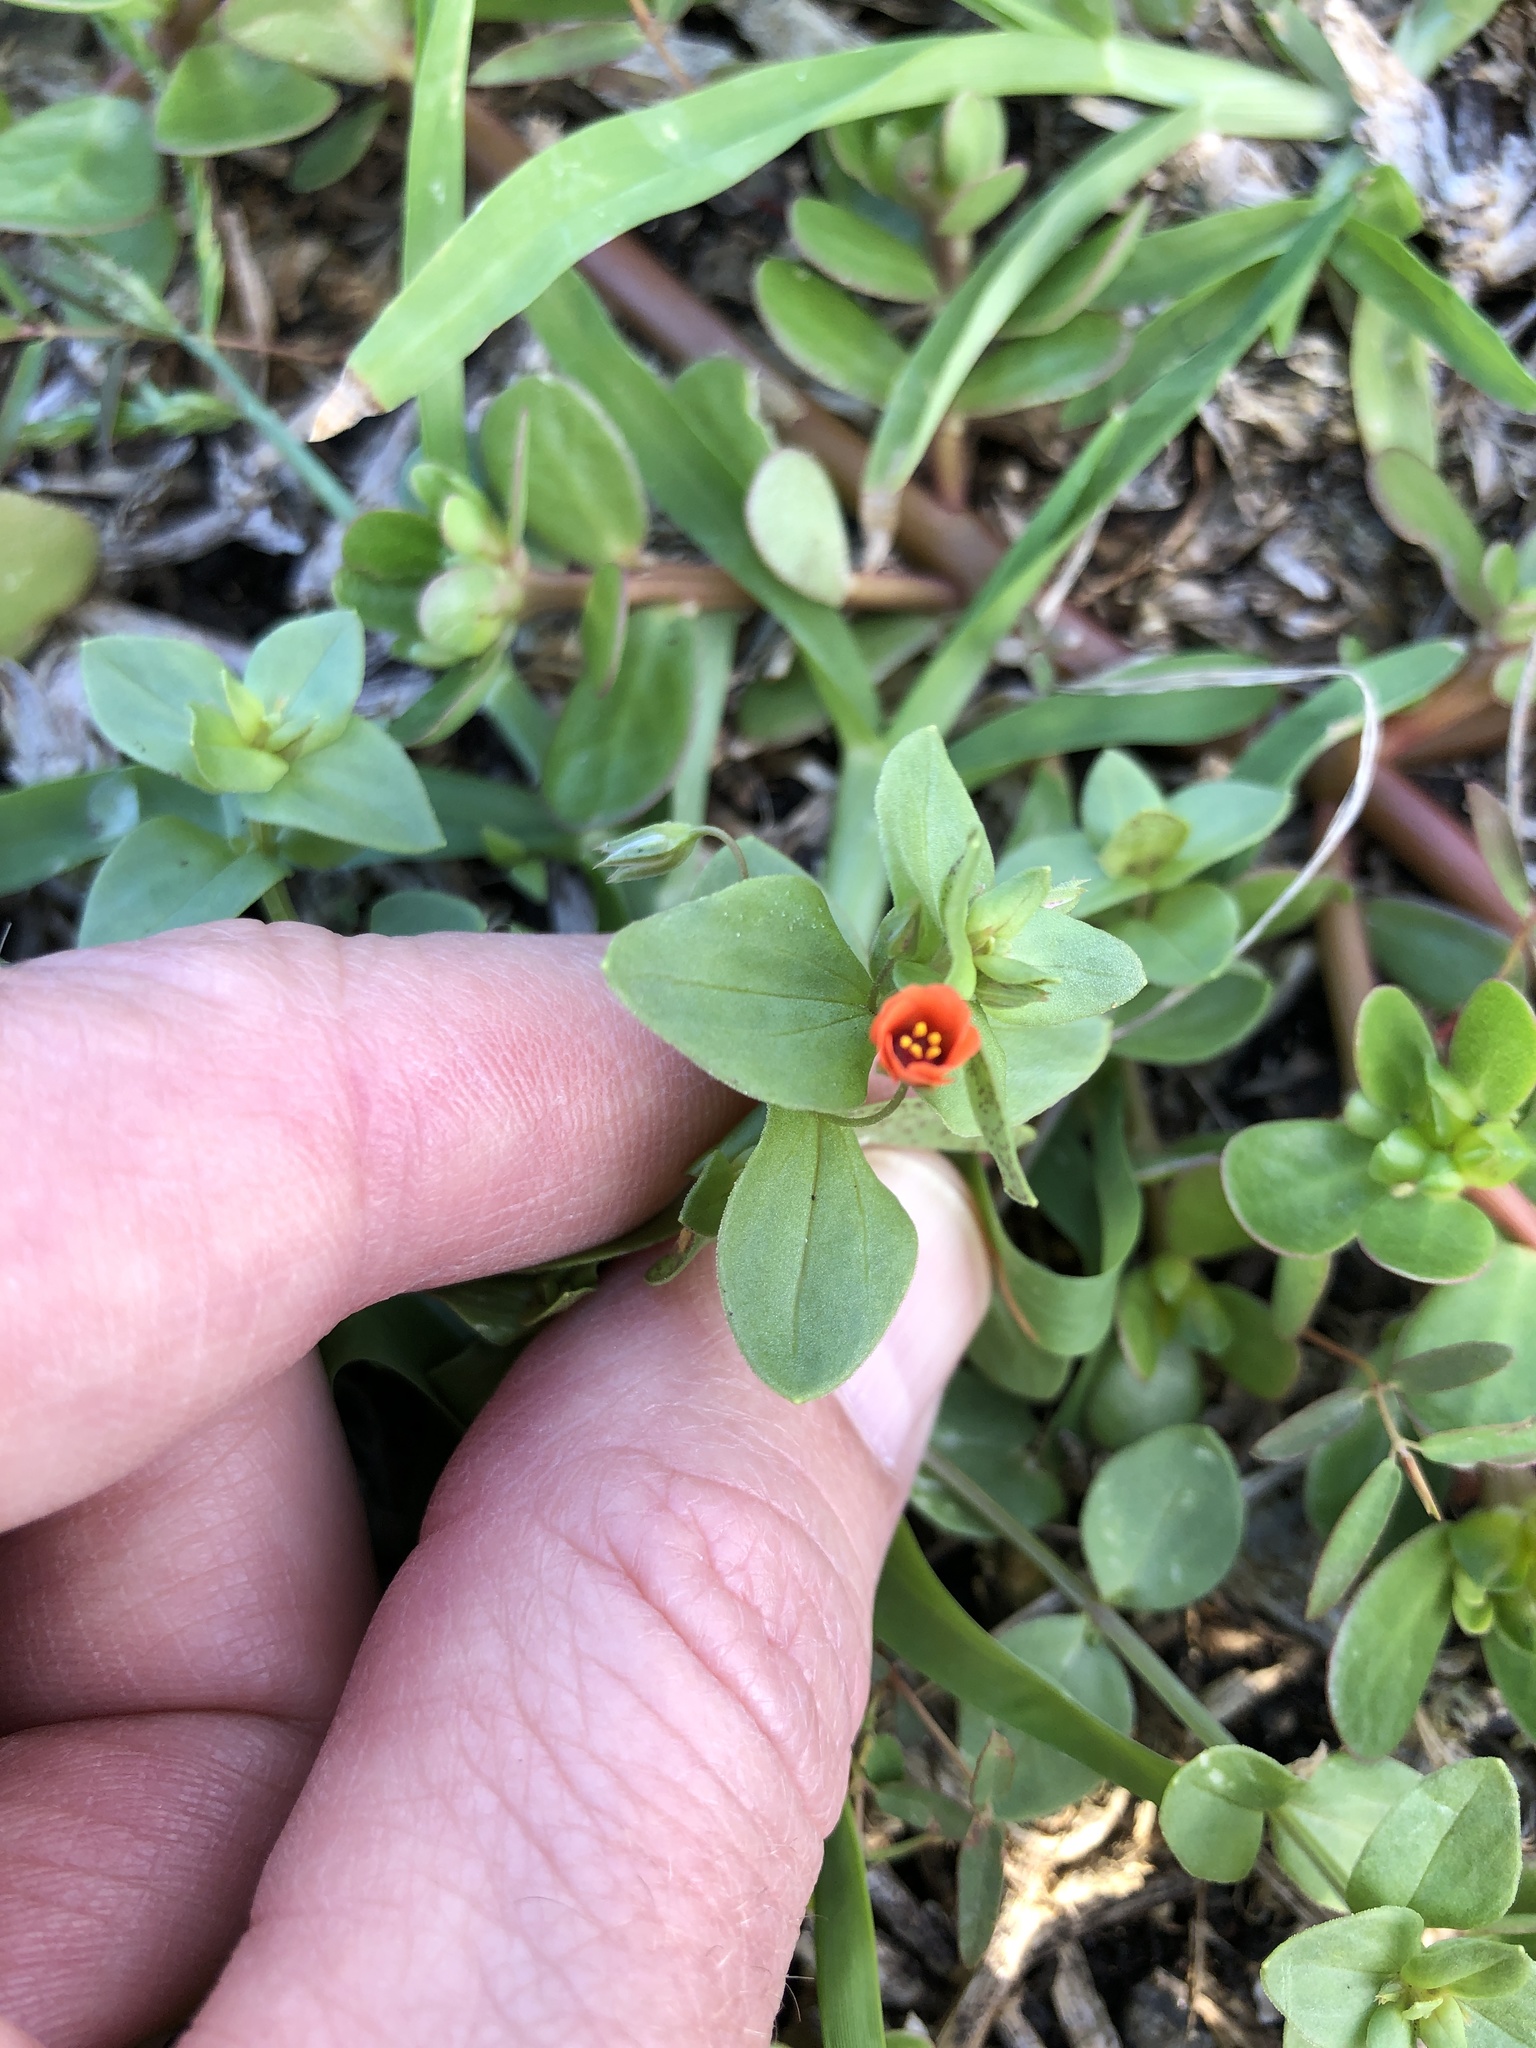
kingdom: Plantae
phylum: Tracheophyta
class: Magnoliopsida
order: Ericales
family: Primulaceae
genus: Lysimachia
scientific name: Lysimachia arvensis
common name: Scarlet pimpernel
